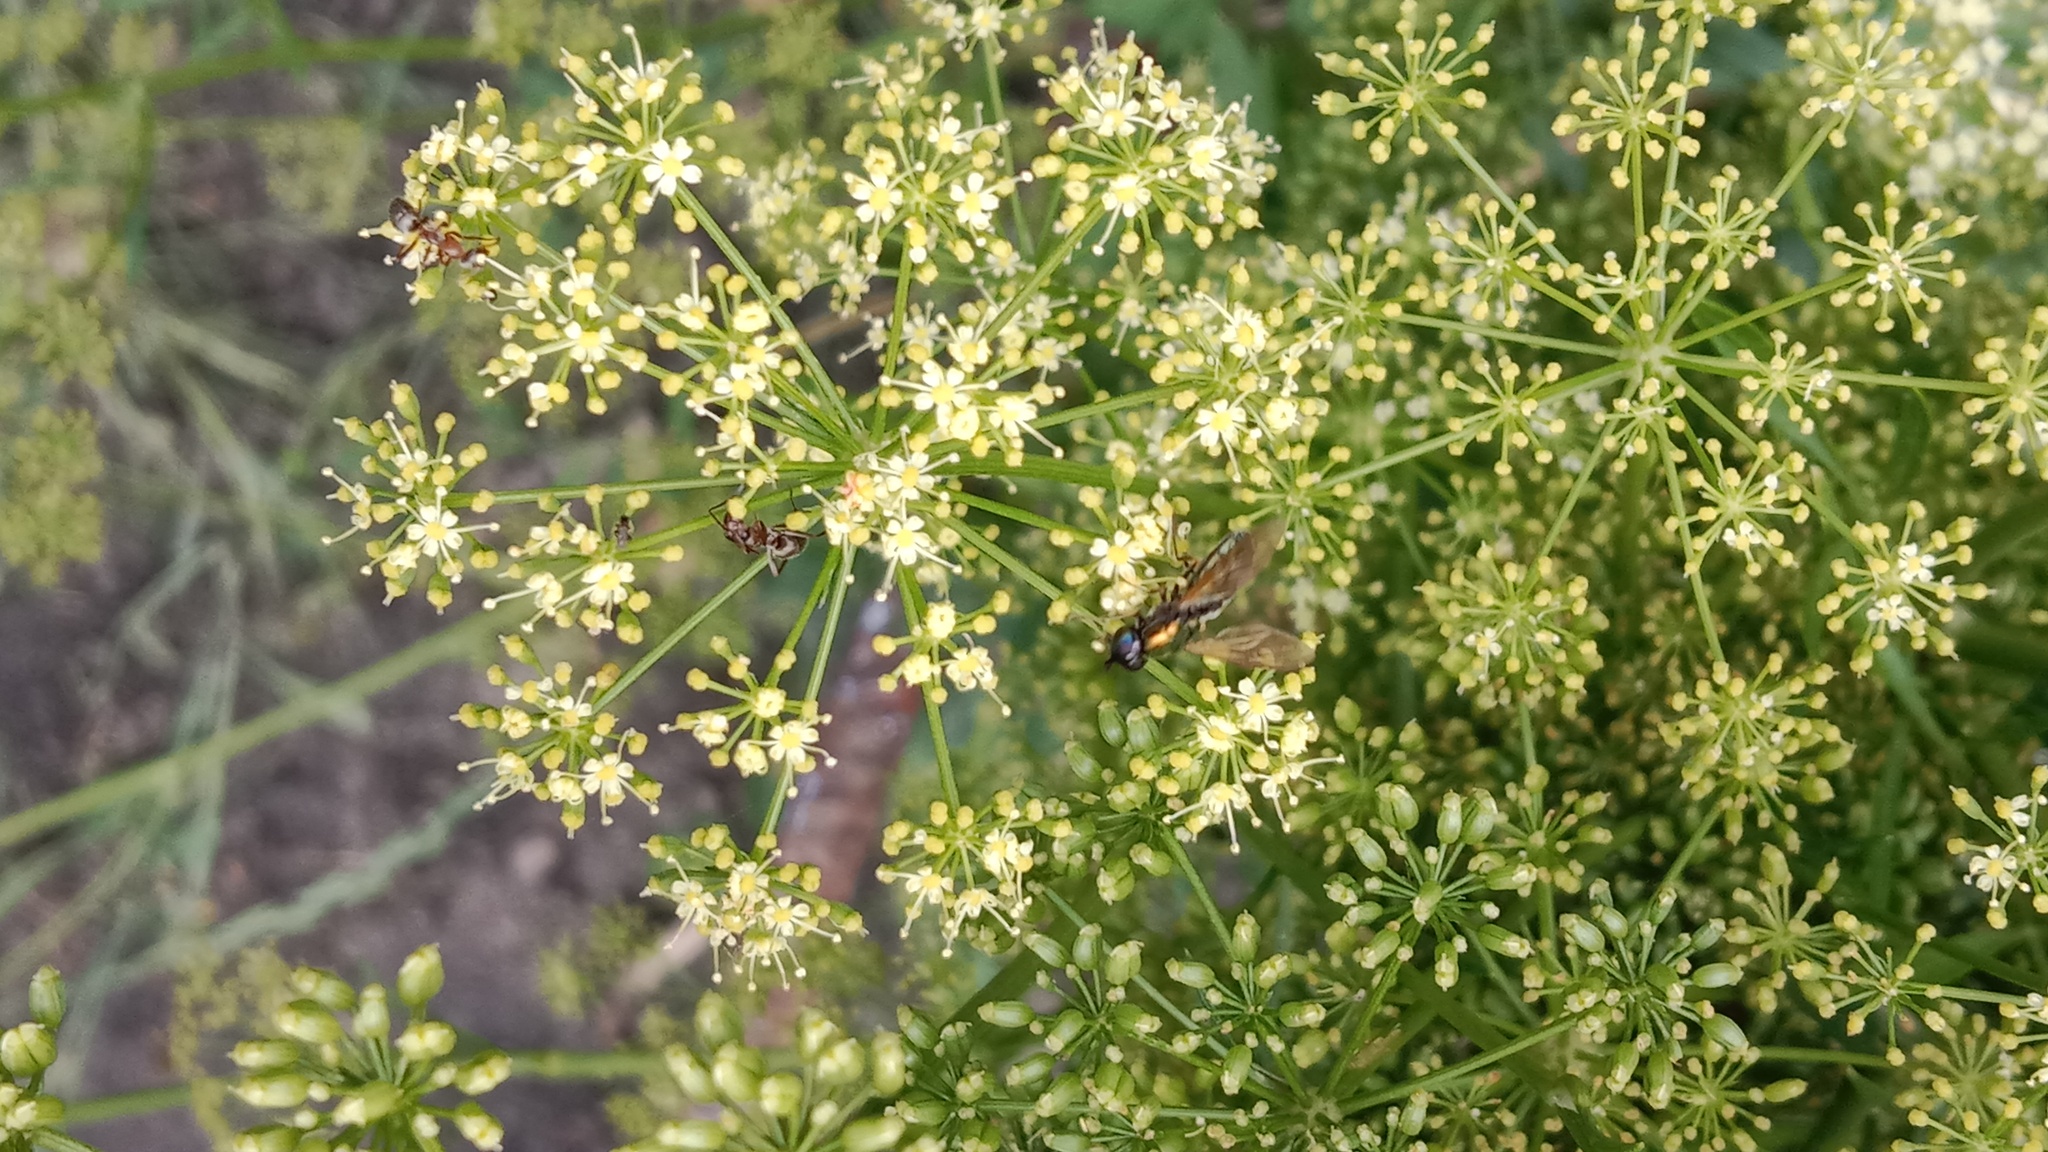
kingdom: Animalia
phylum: Arthropoda
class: Insecta
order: Diptera
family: Stratiomyidae
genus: Chloromyia
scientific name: Chloromyia formosa
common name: Soldier fly
